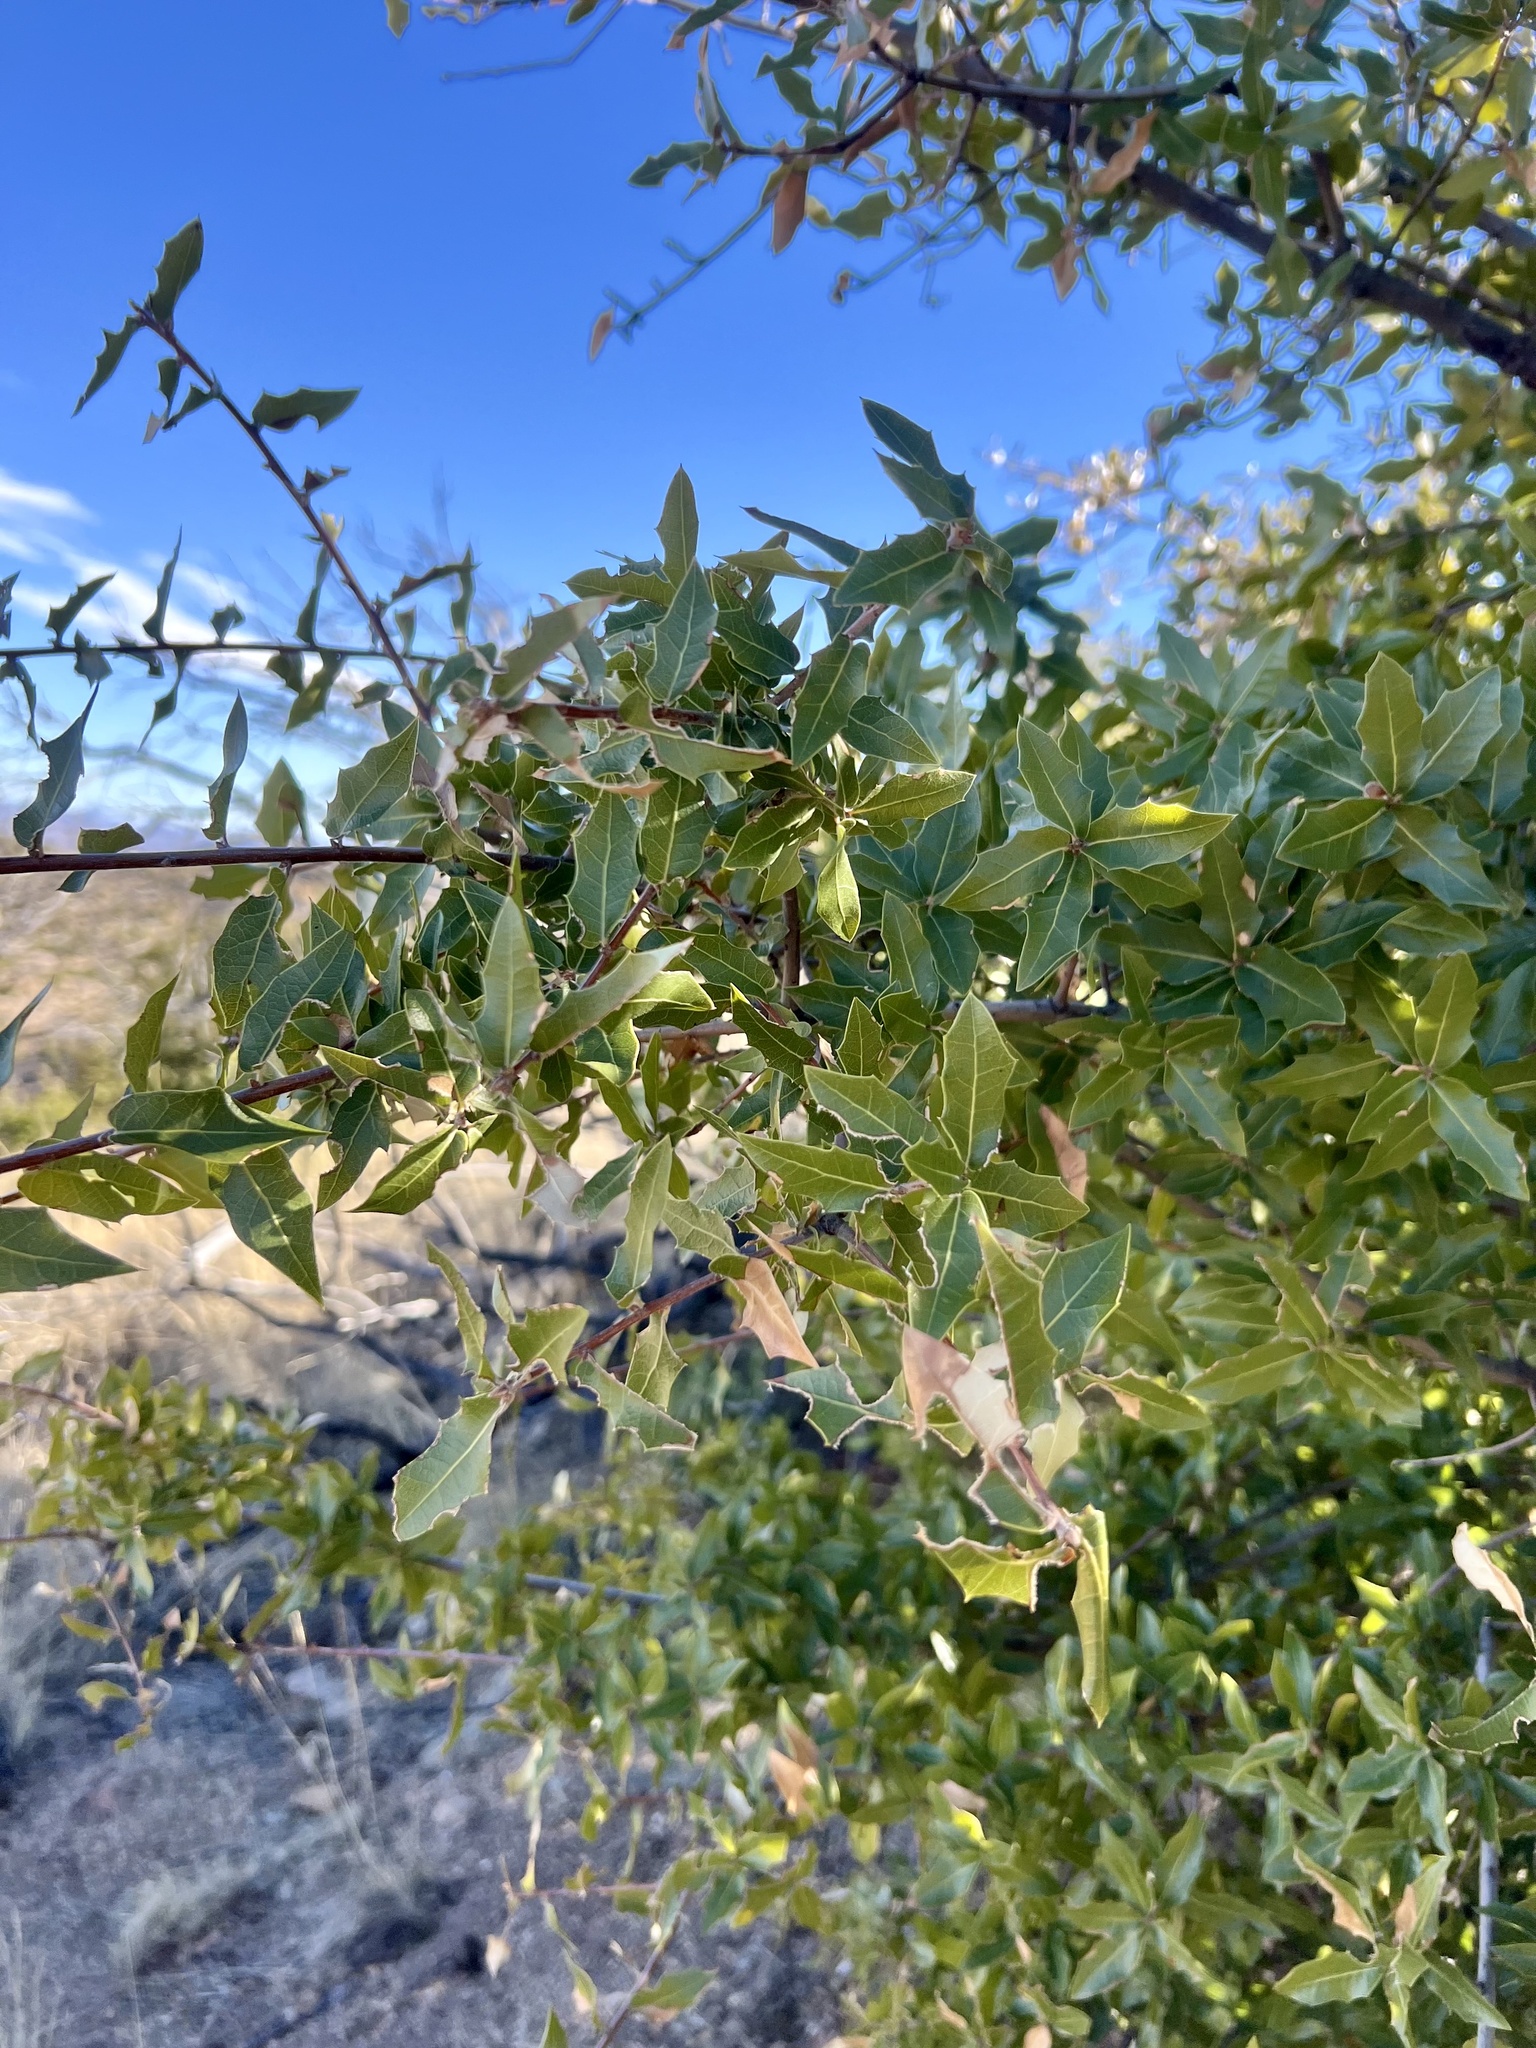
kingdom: Plantae
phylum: Tracheophyta
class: Magnoliopsida
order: Fagales
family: Fagaceae
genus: Quercus
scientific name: Quercus emoryi
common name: Emory oak
